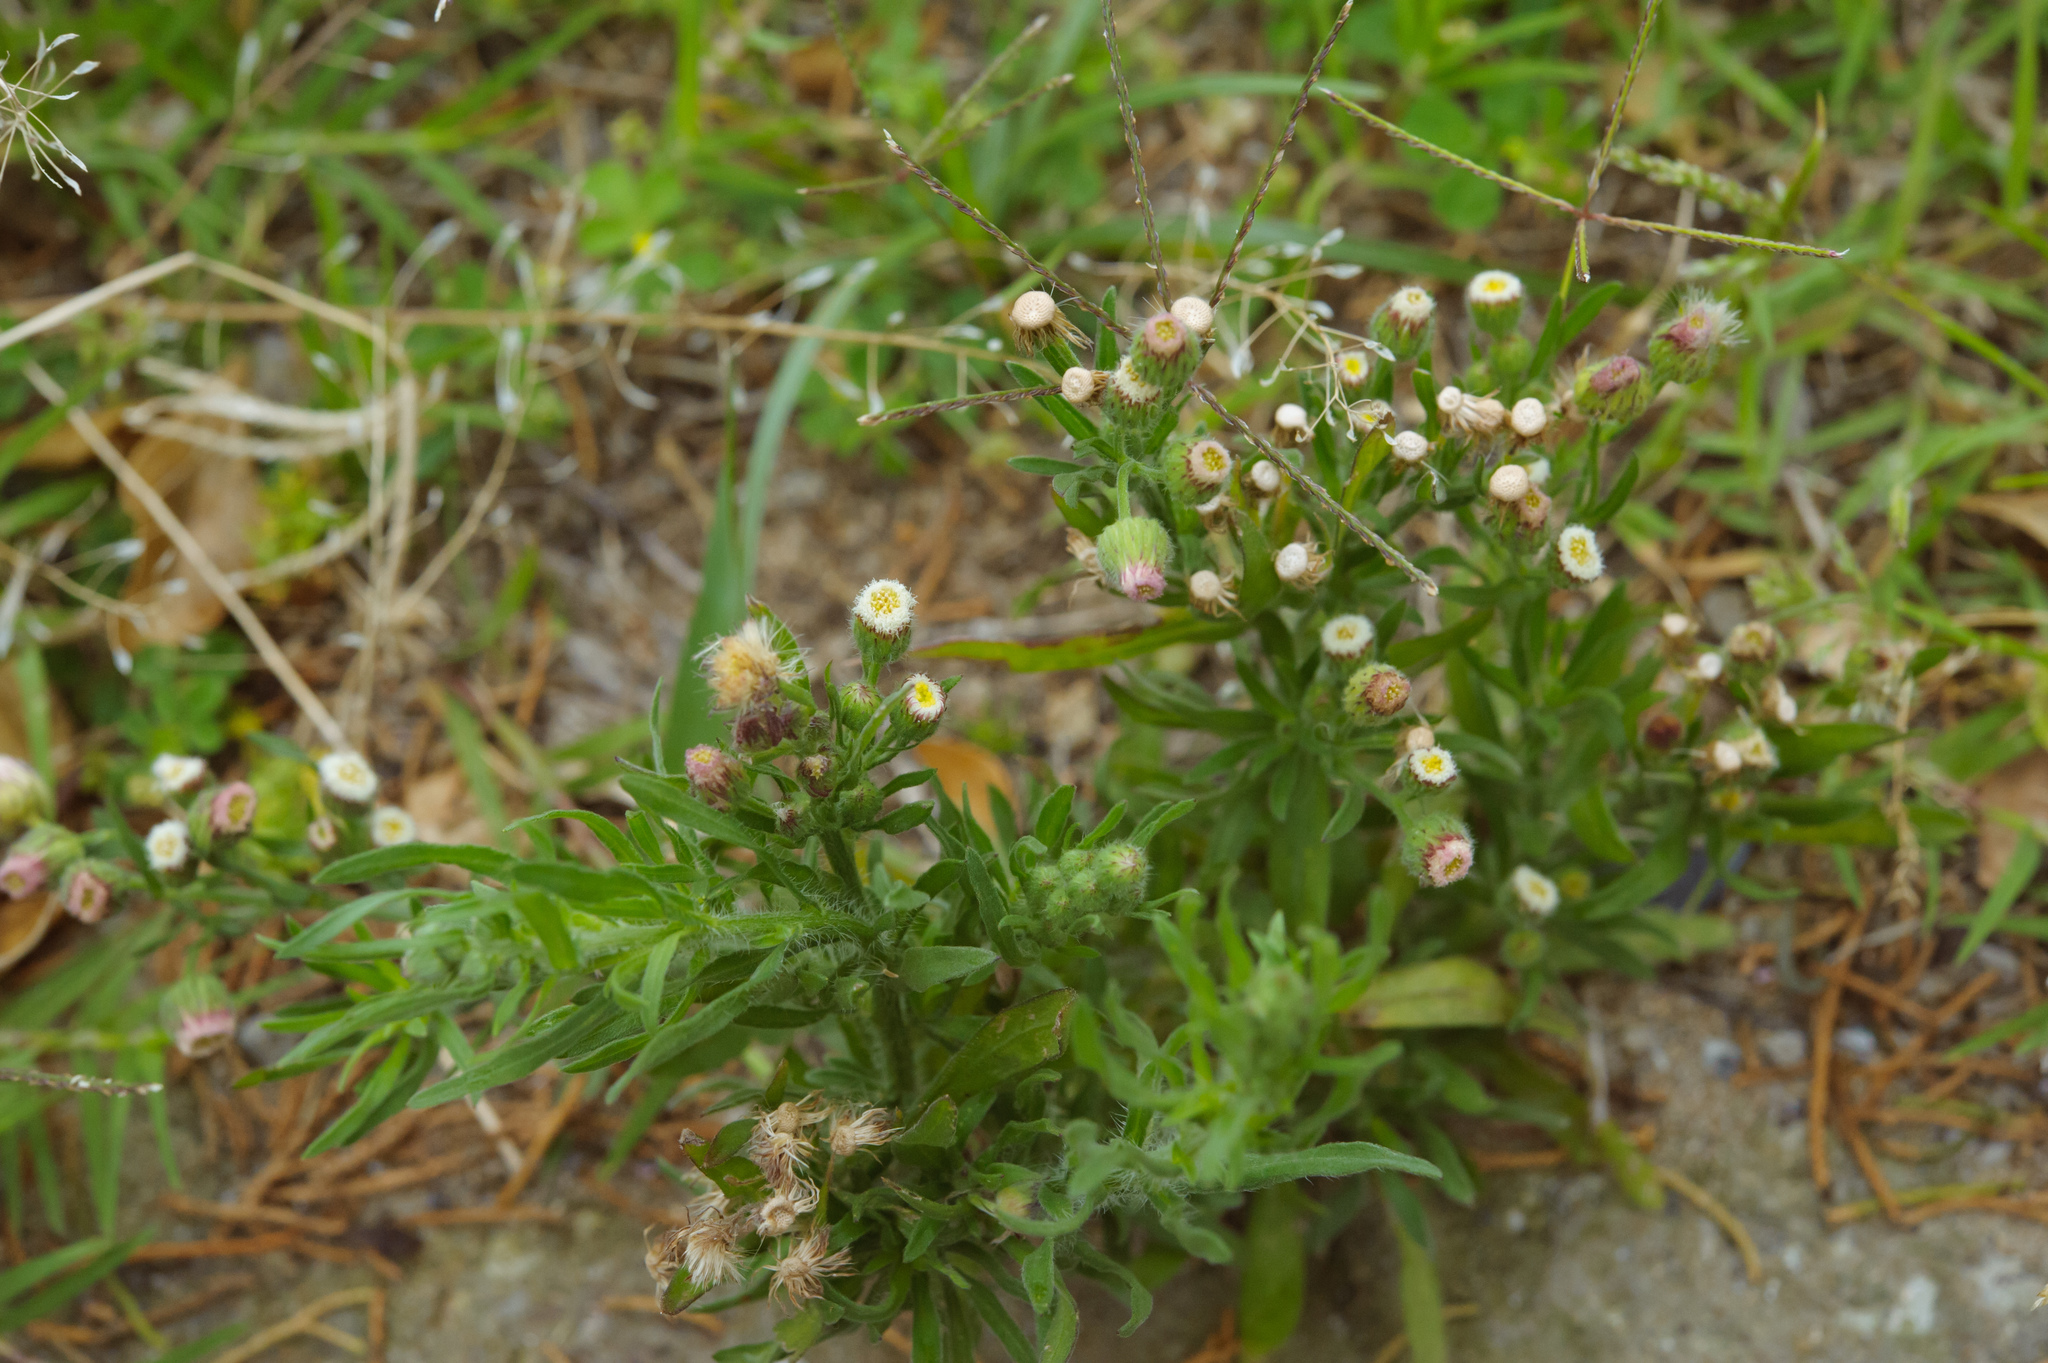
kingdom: Plantae
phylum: Tracheophyta
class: Magnoliopsida
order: Asterales
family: Asteraceae
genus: Erigeron
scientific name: Erigeron bonariensis
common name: Argentine fleabane
